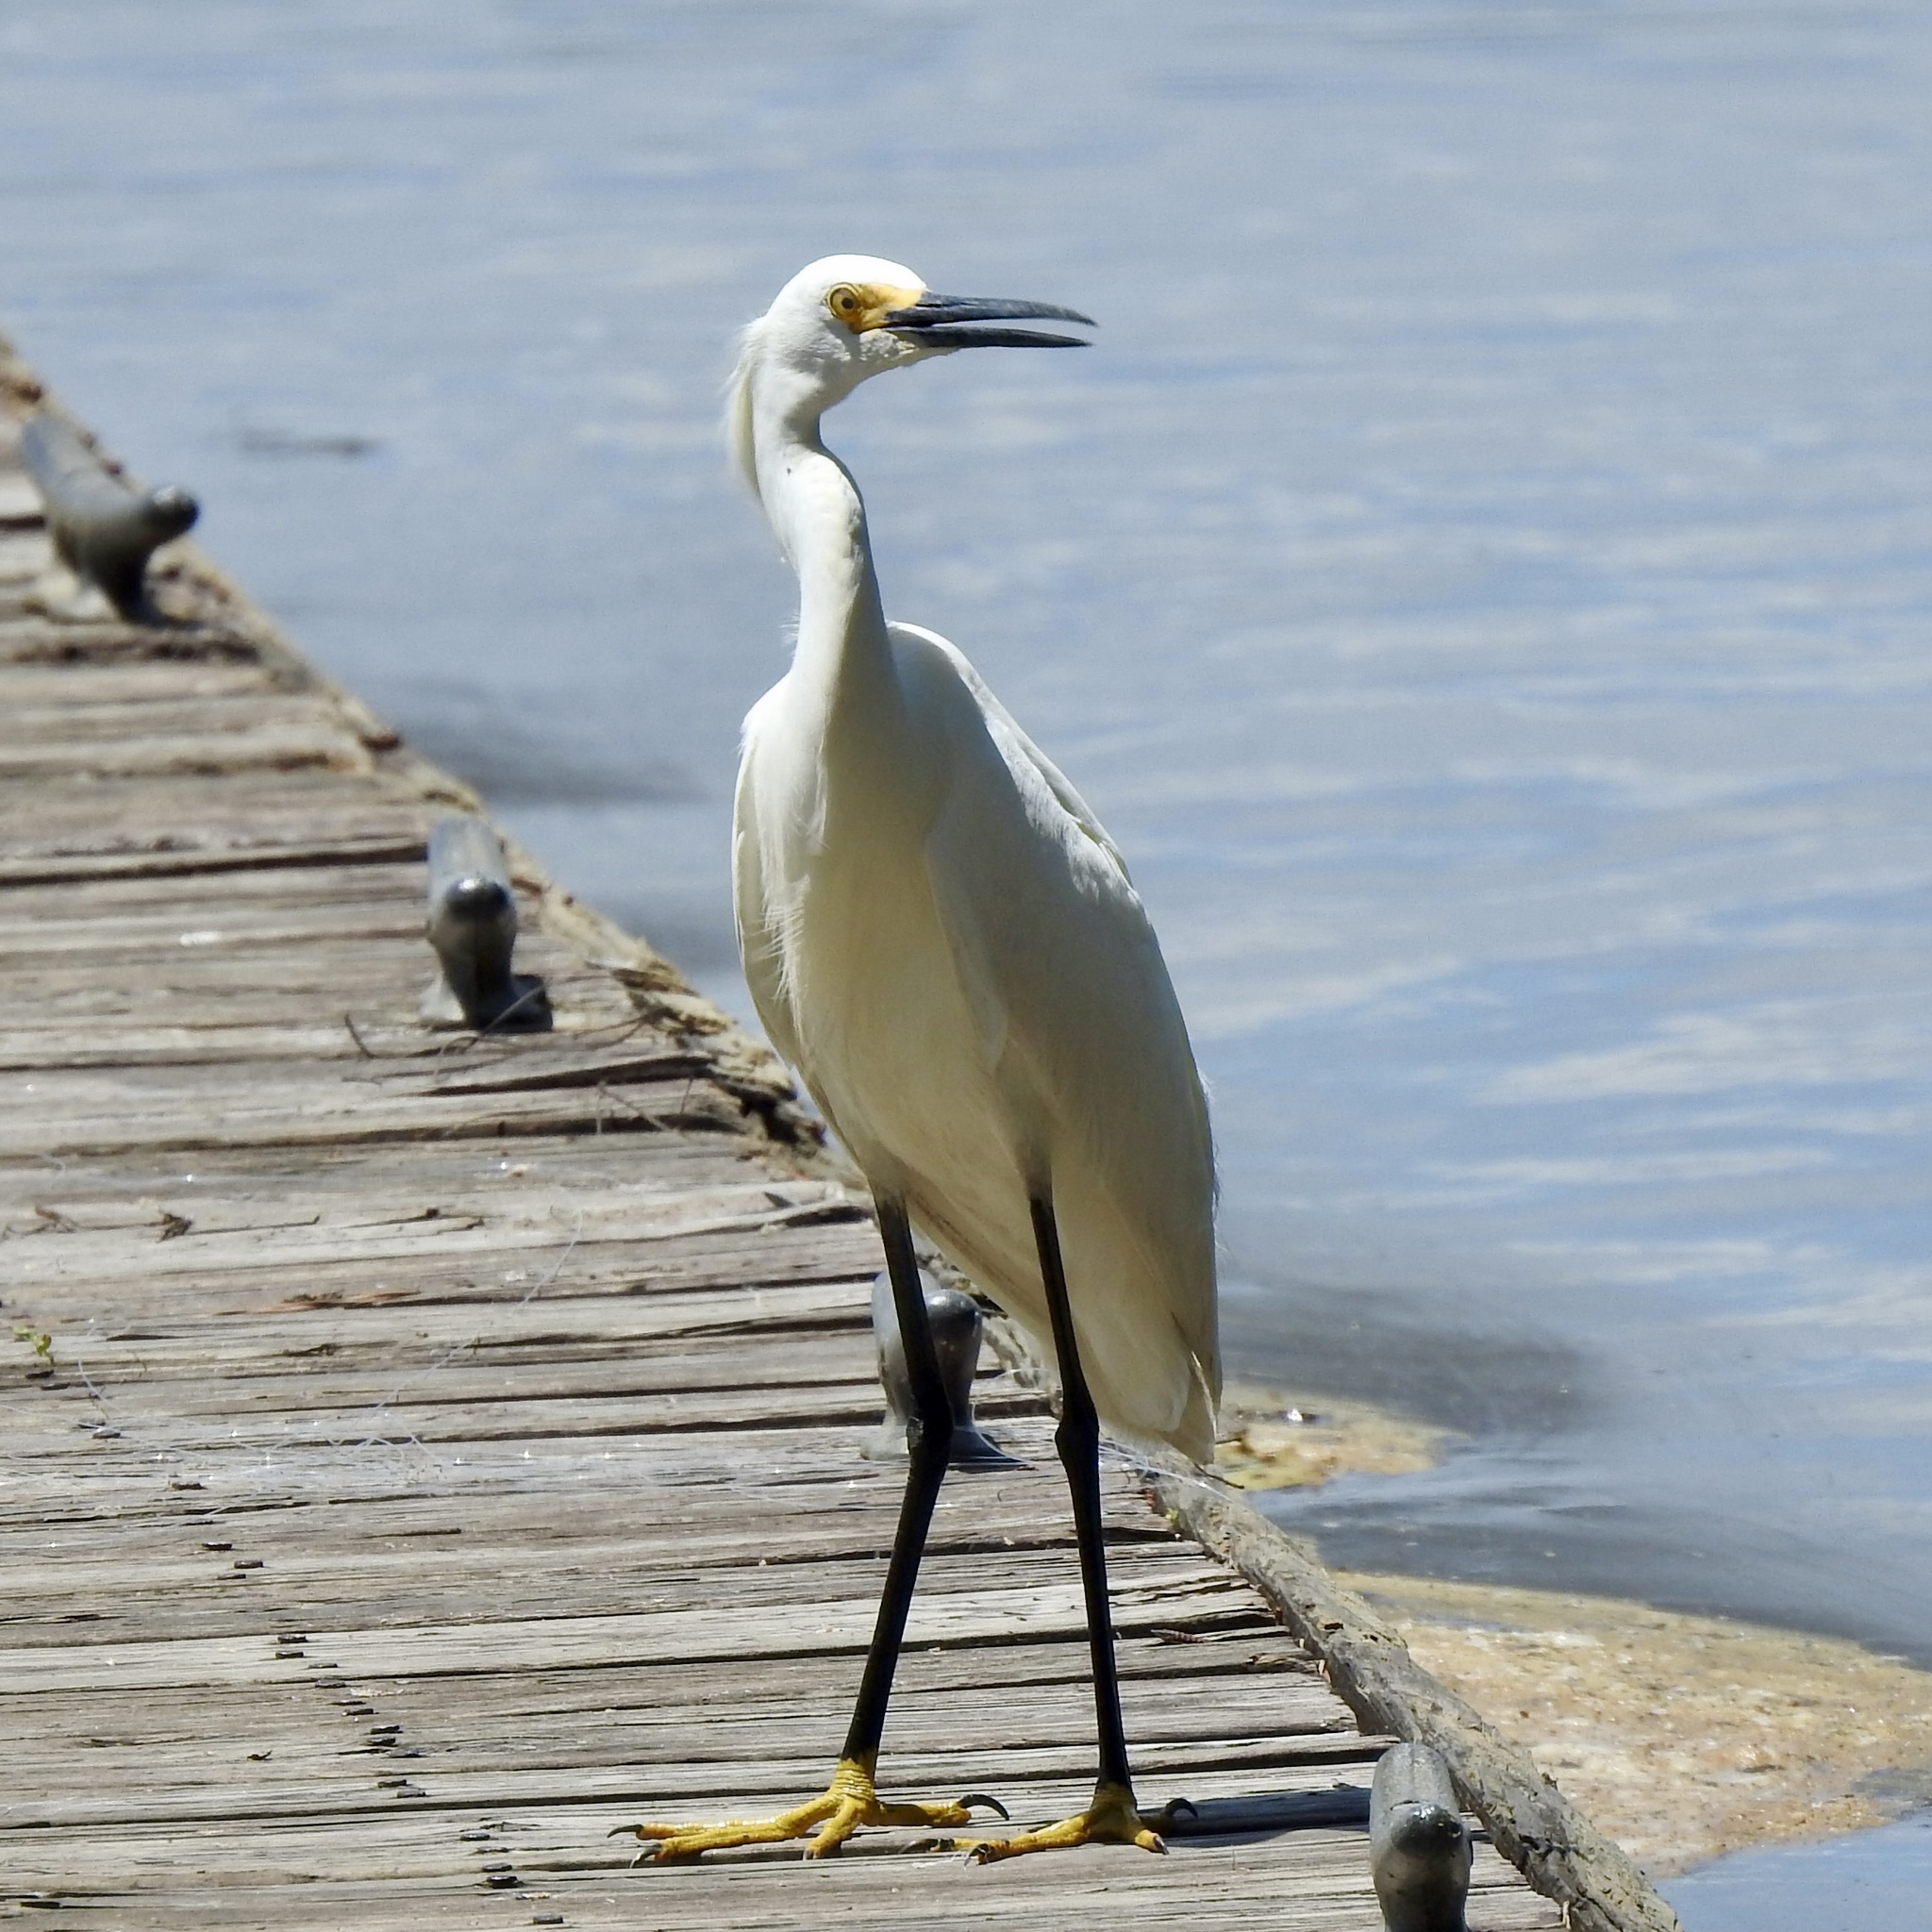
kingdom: Animalia
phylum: Chordata
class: Aves
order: Pelecaniformes
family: Ardeidae
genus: Egretta
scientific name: Egretta thula
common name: Snowy egret
